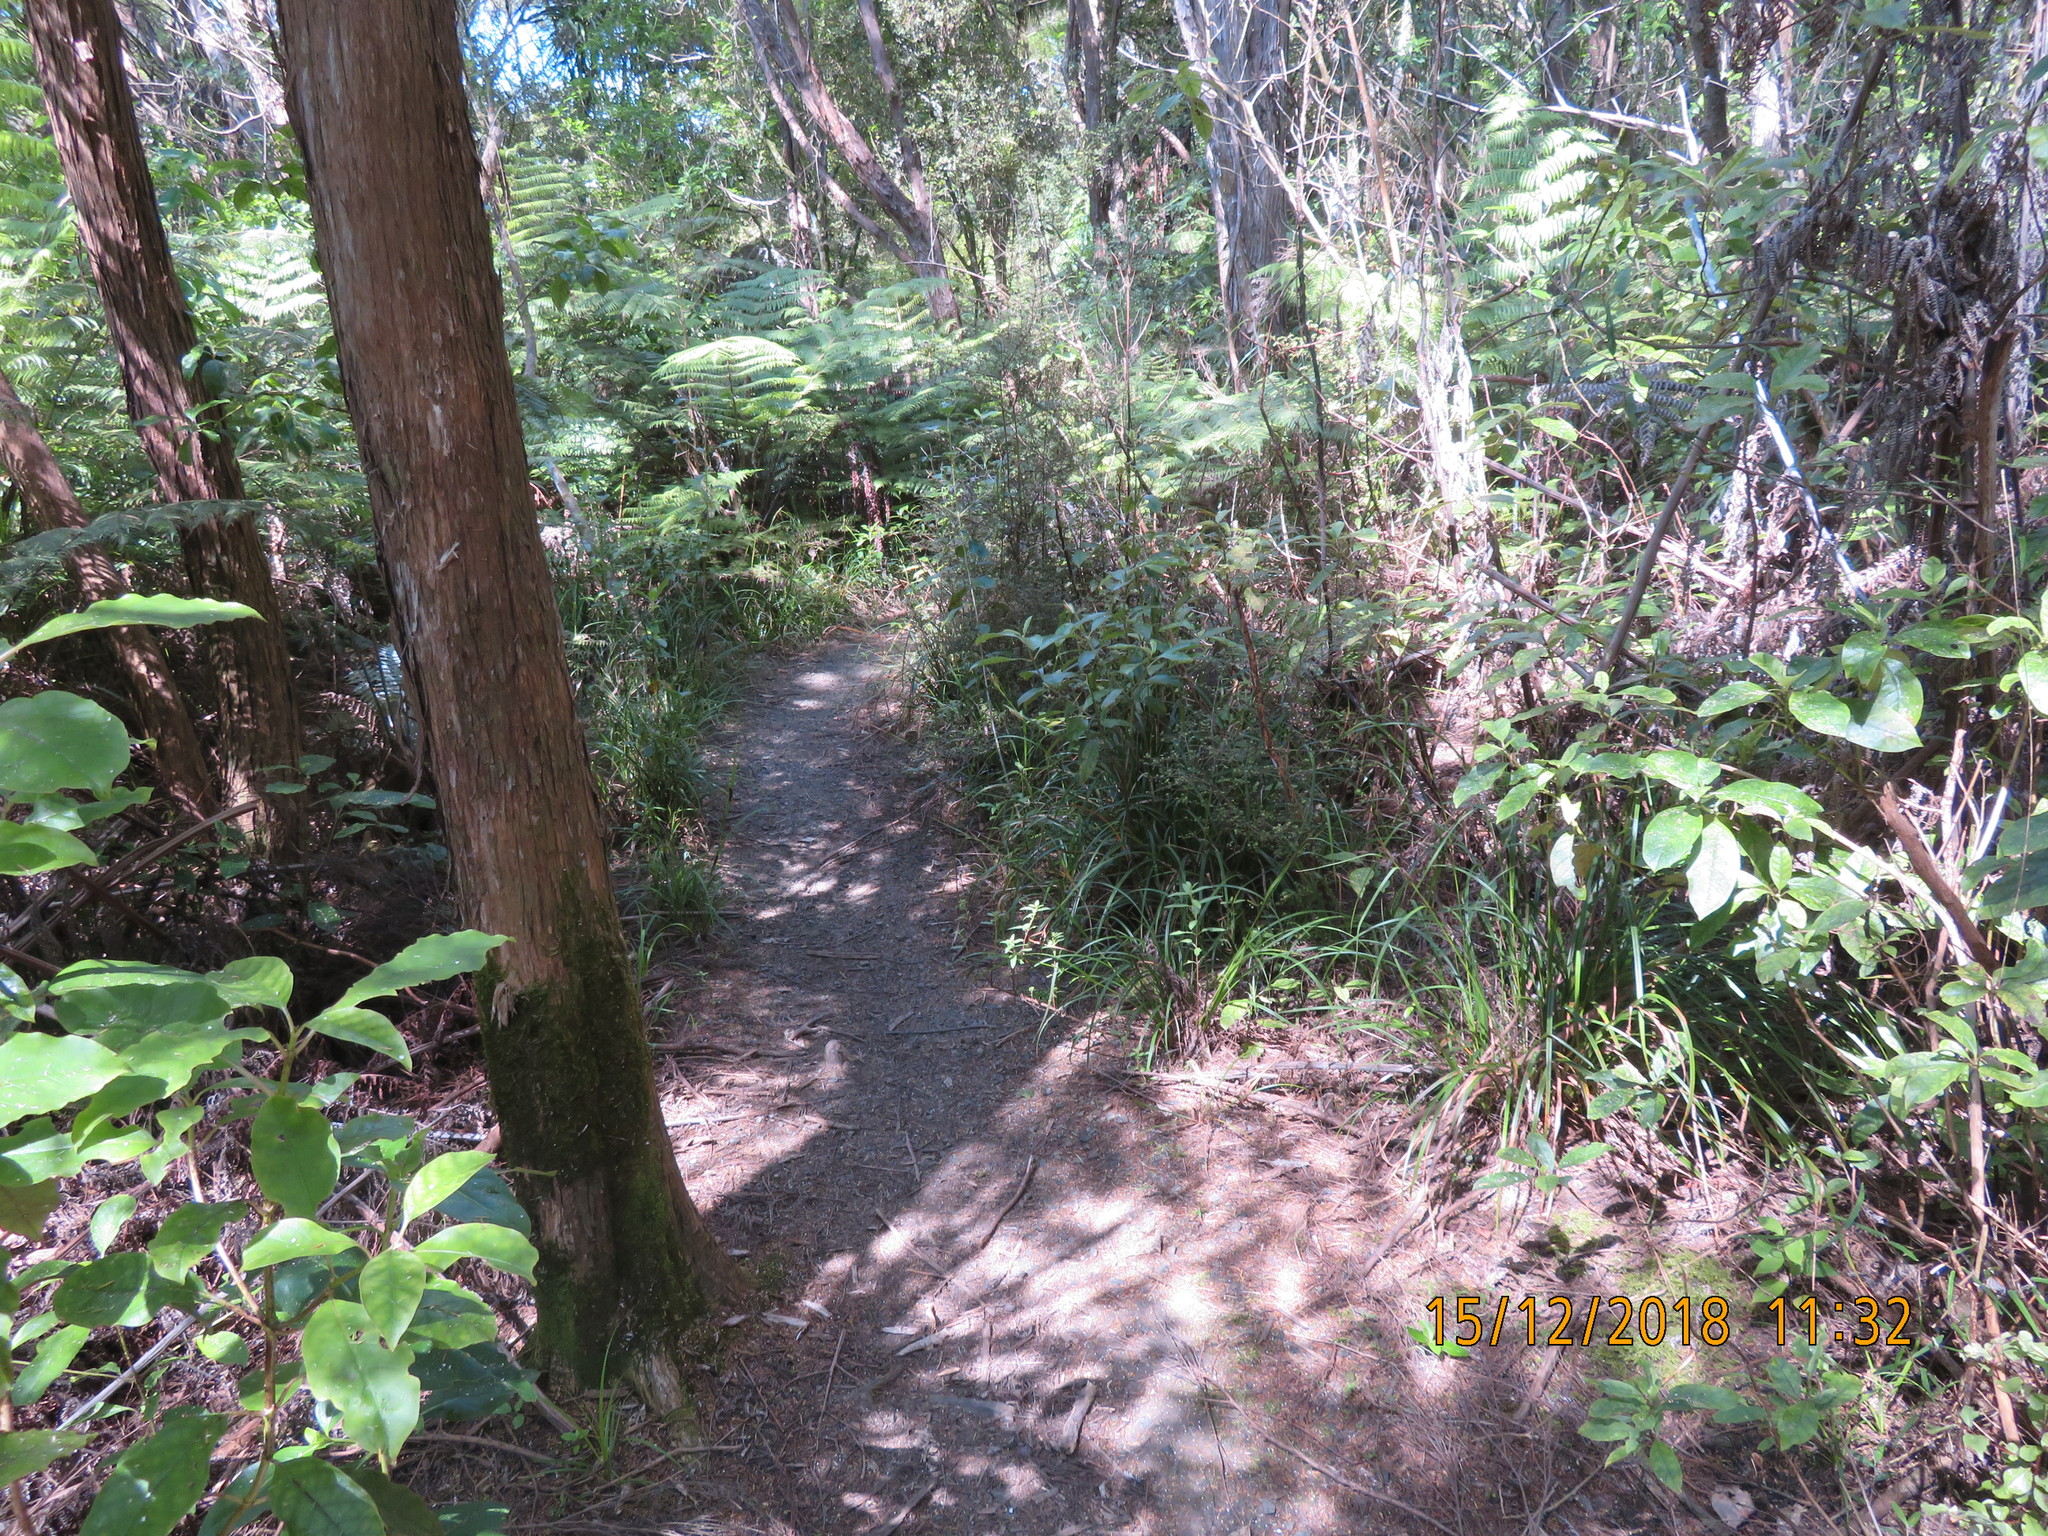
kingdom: Plantae
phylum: Tracheophyta
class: Magnoliopsida
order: Gentianales
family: Rubiaceae
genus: Coprosma
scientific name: Coprosma autumnalis
